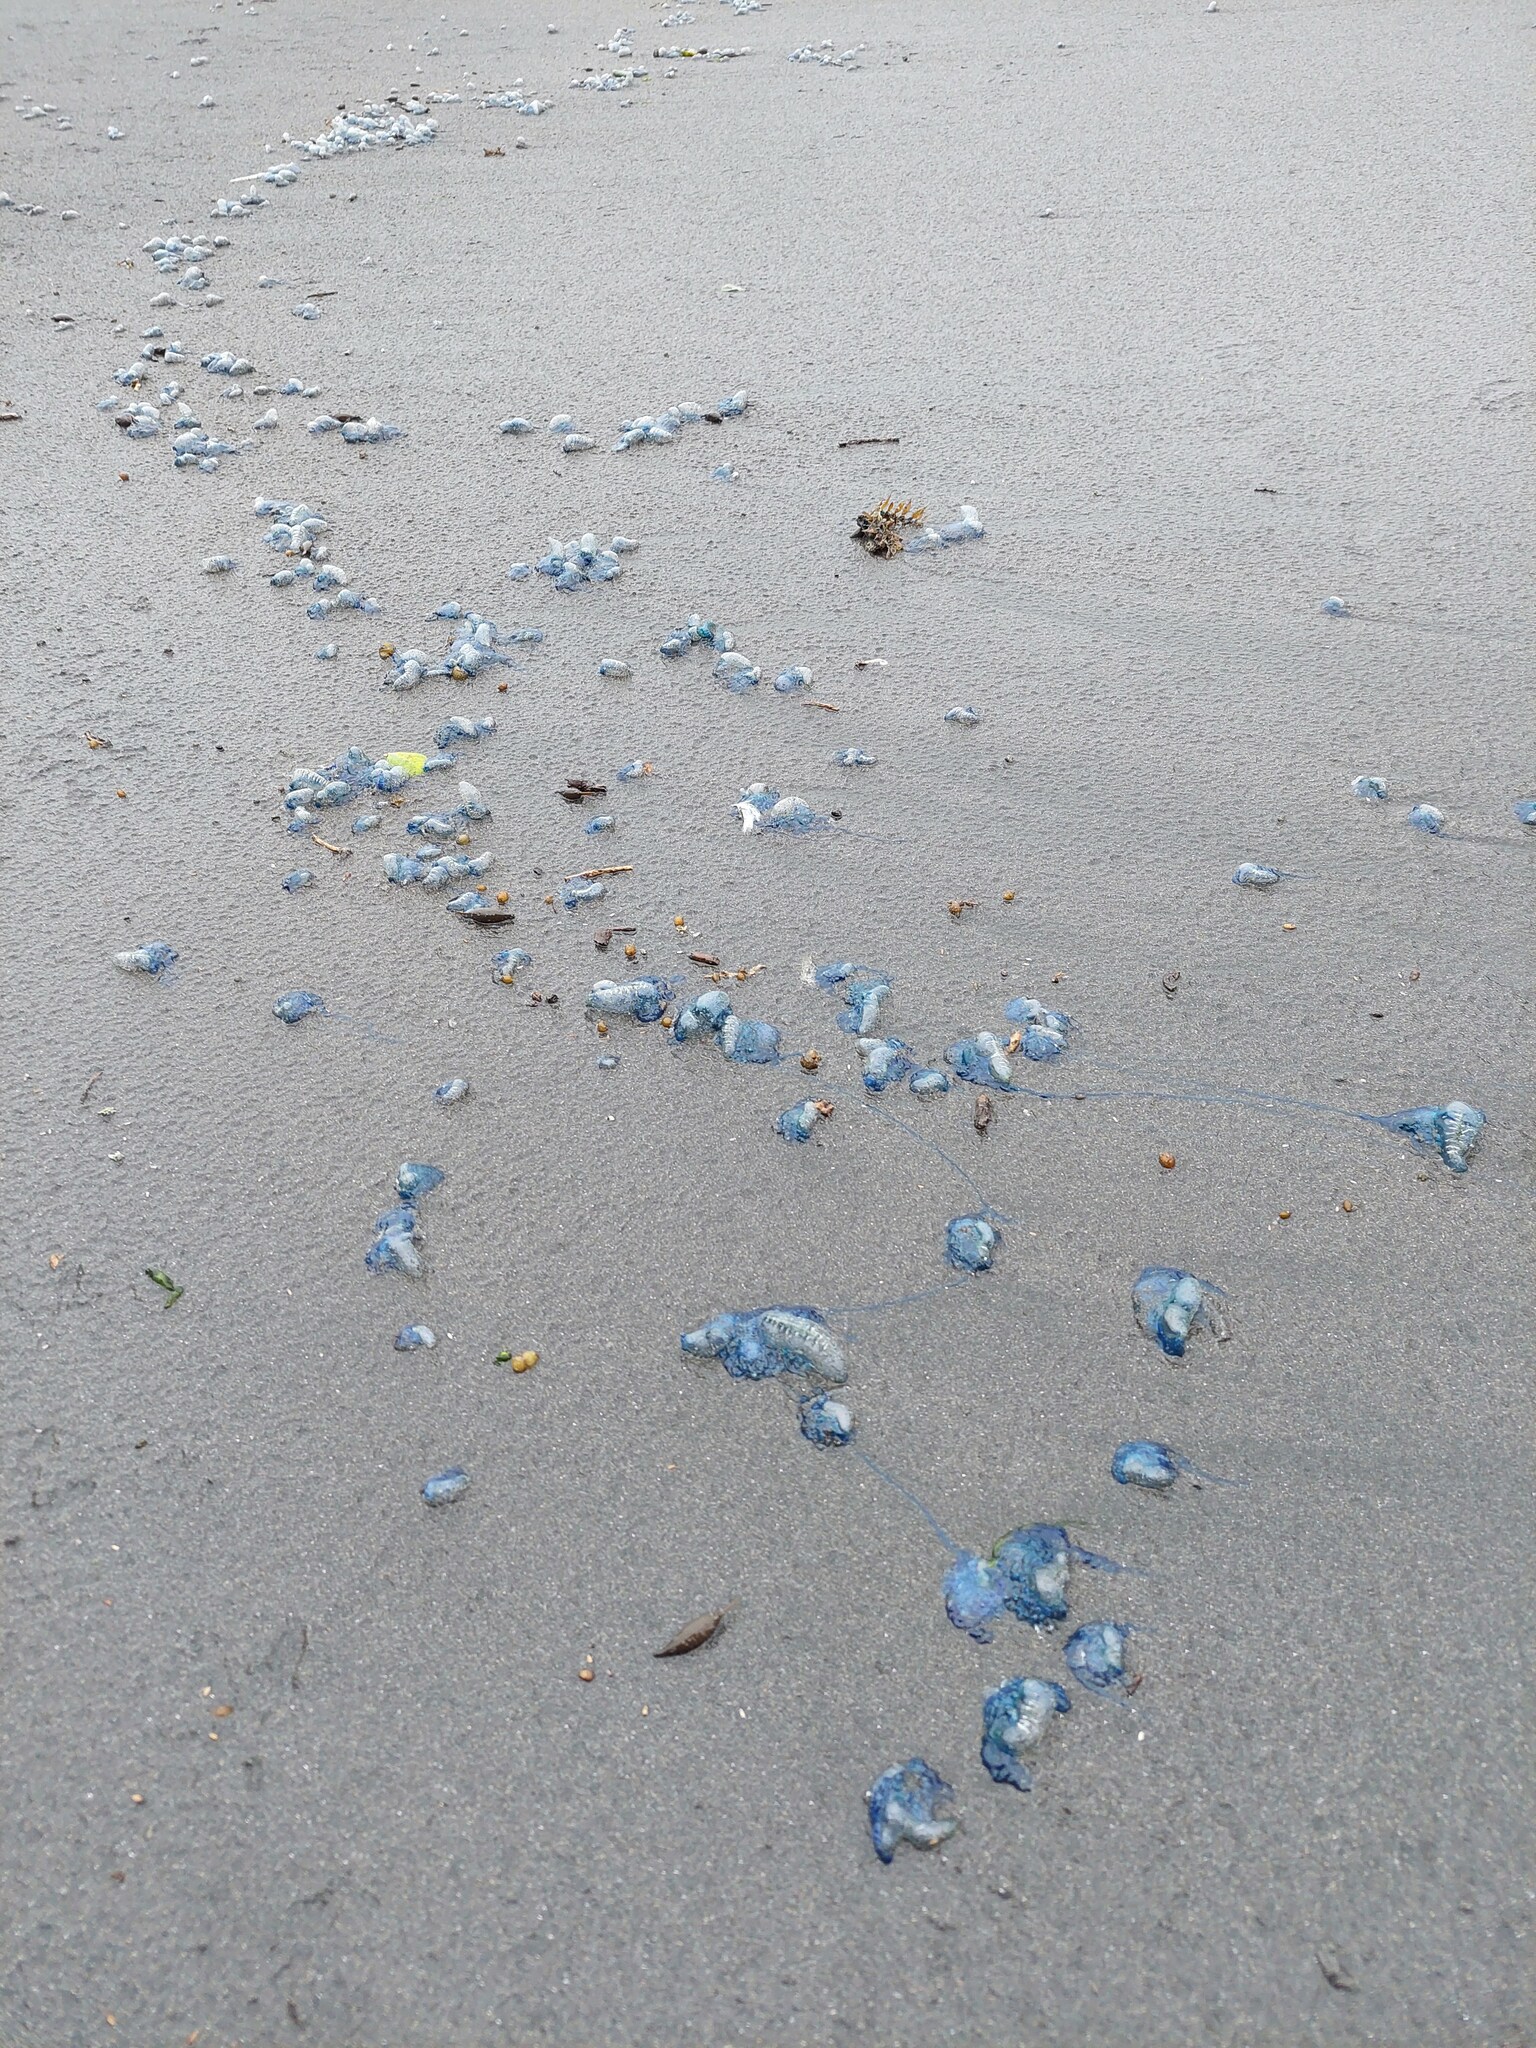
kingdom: Animalia
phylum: Cnidaria
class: Hydrozoa
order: Siphonophorae
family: Physaliidae
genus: Physalia
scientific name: Physalia physalis
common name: Portuguese man-of-war
